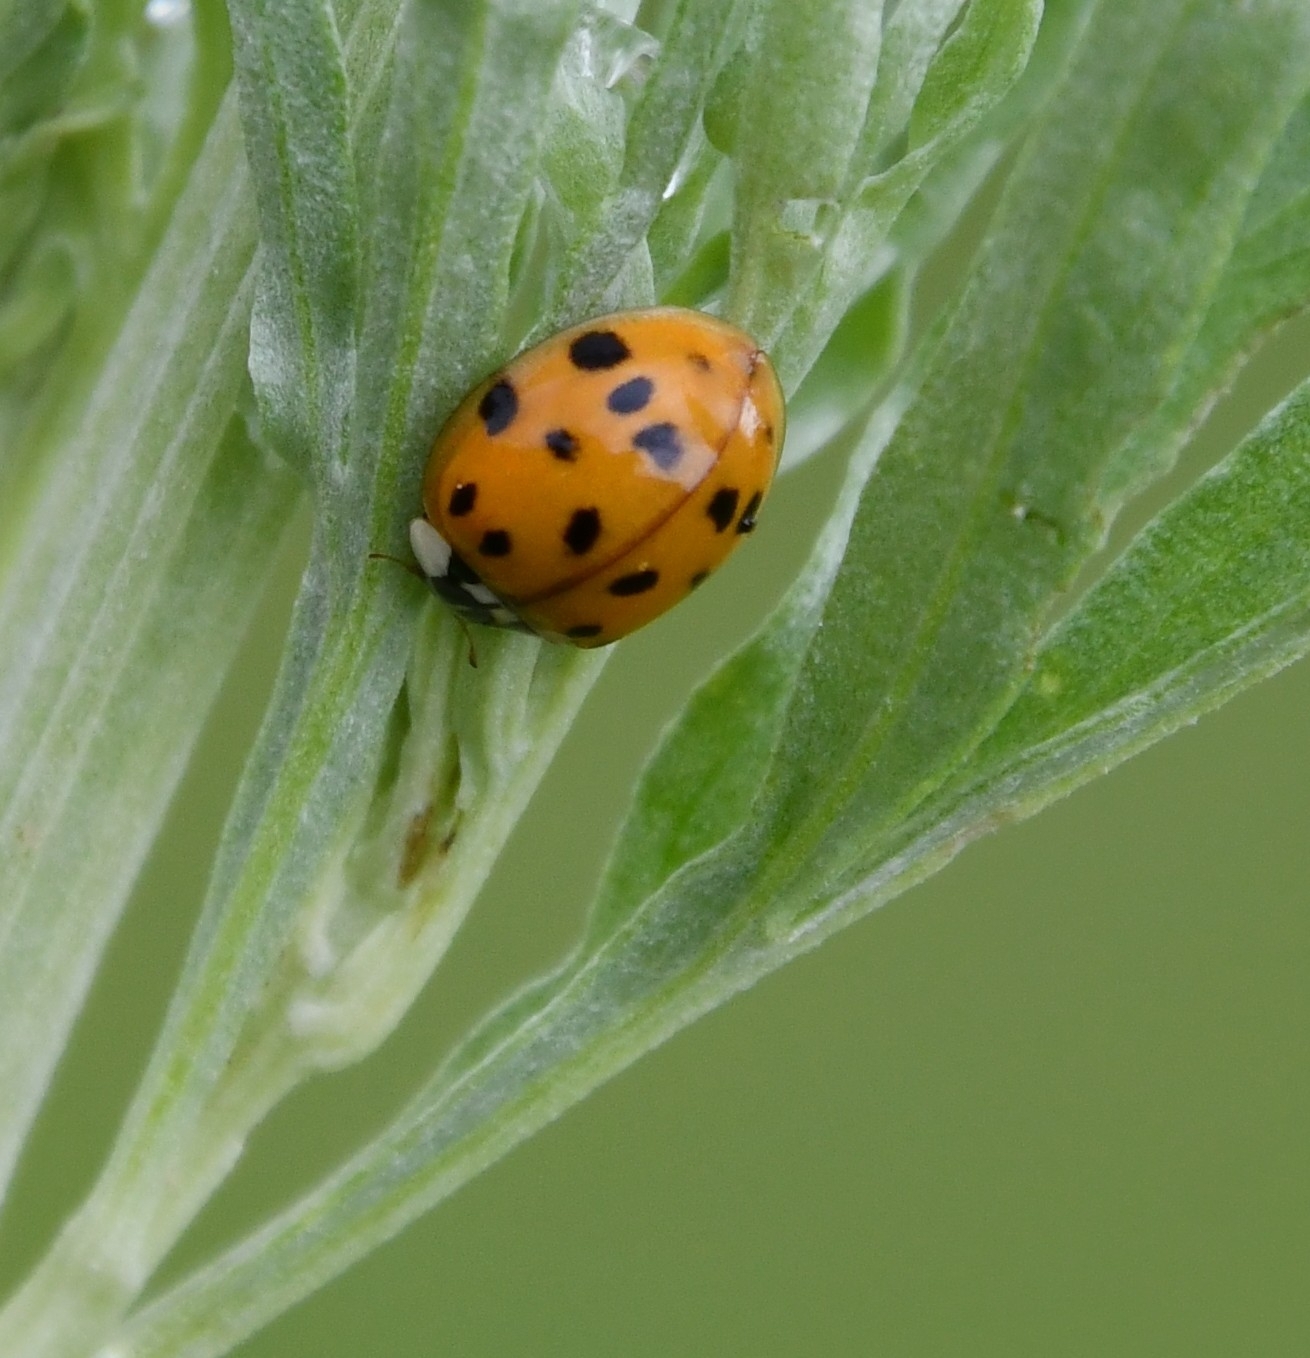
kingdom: Animalia
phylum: Arthropoda
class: Insecta
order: Coleoptera
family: Coccinellidae
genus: Harmonia
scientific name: Harmonia axyridis
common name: Harlequin ladybird
